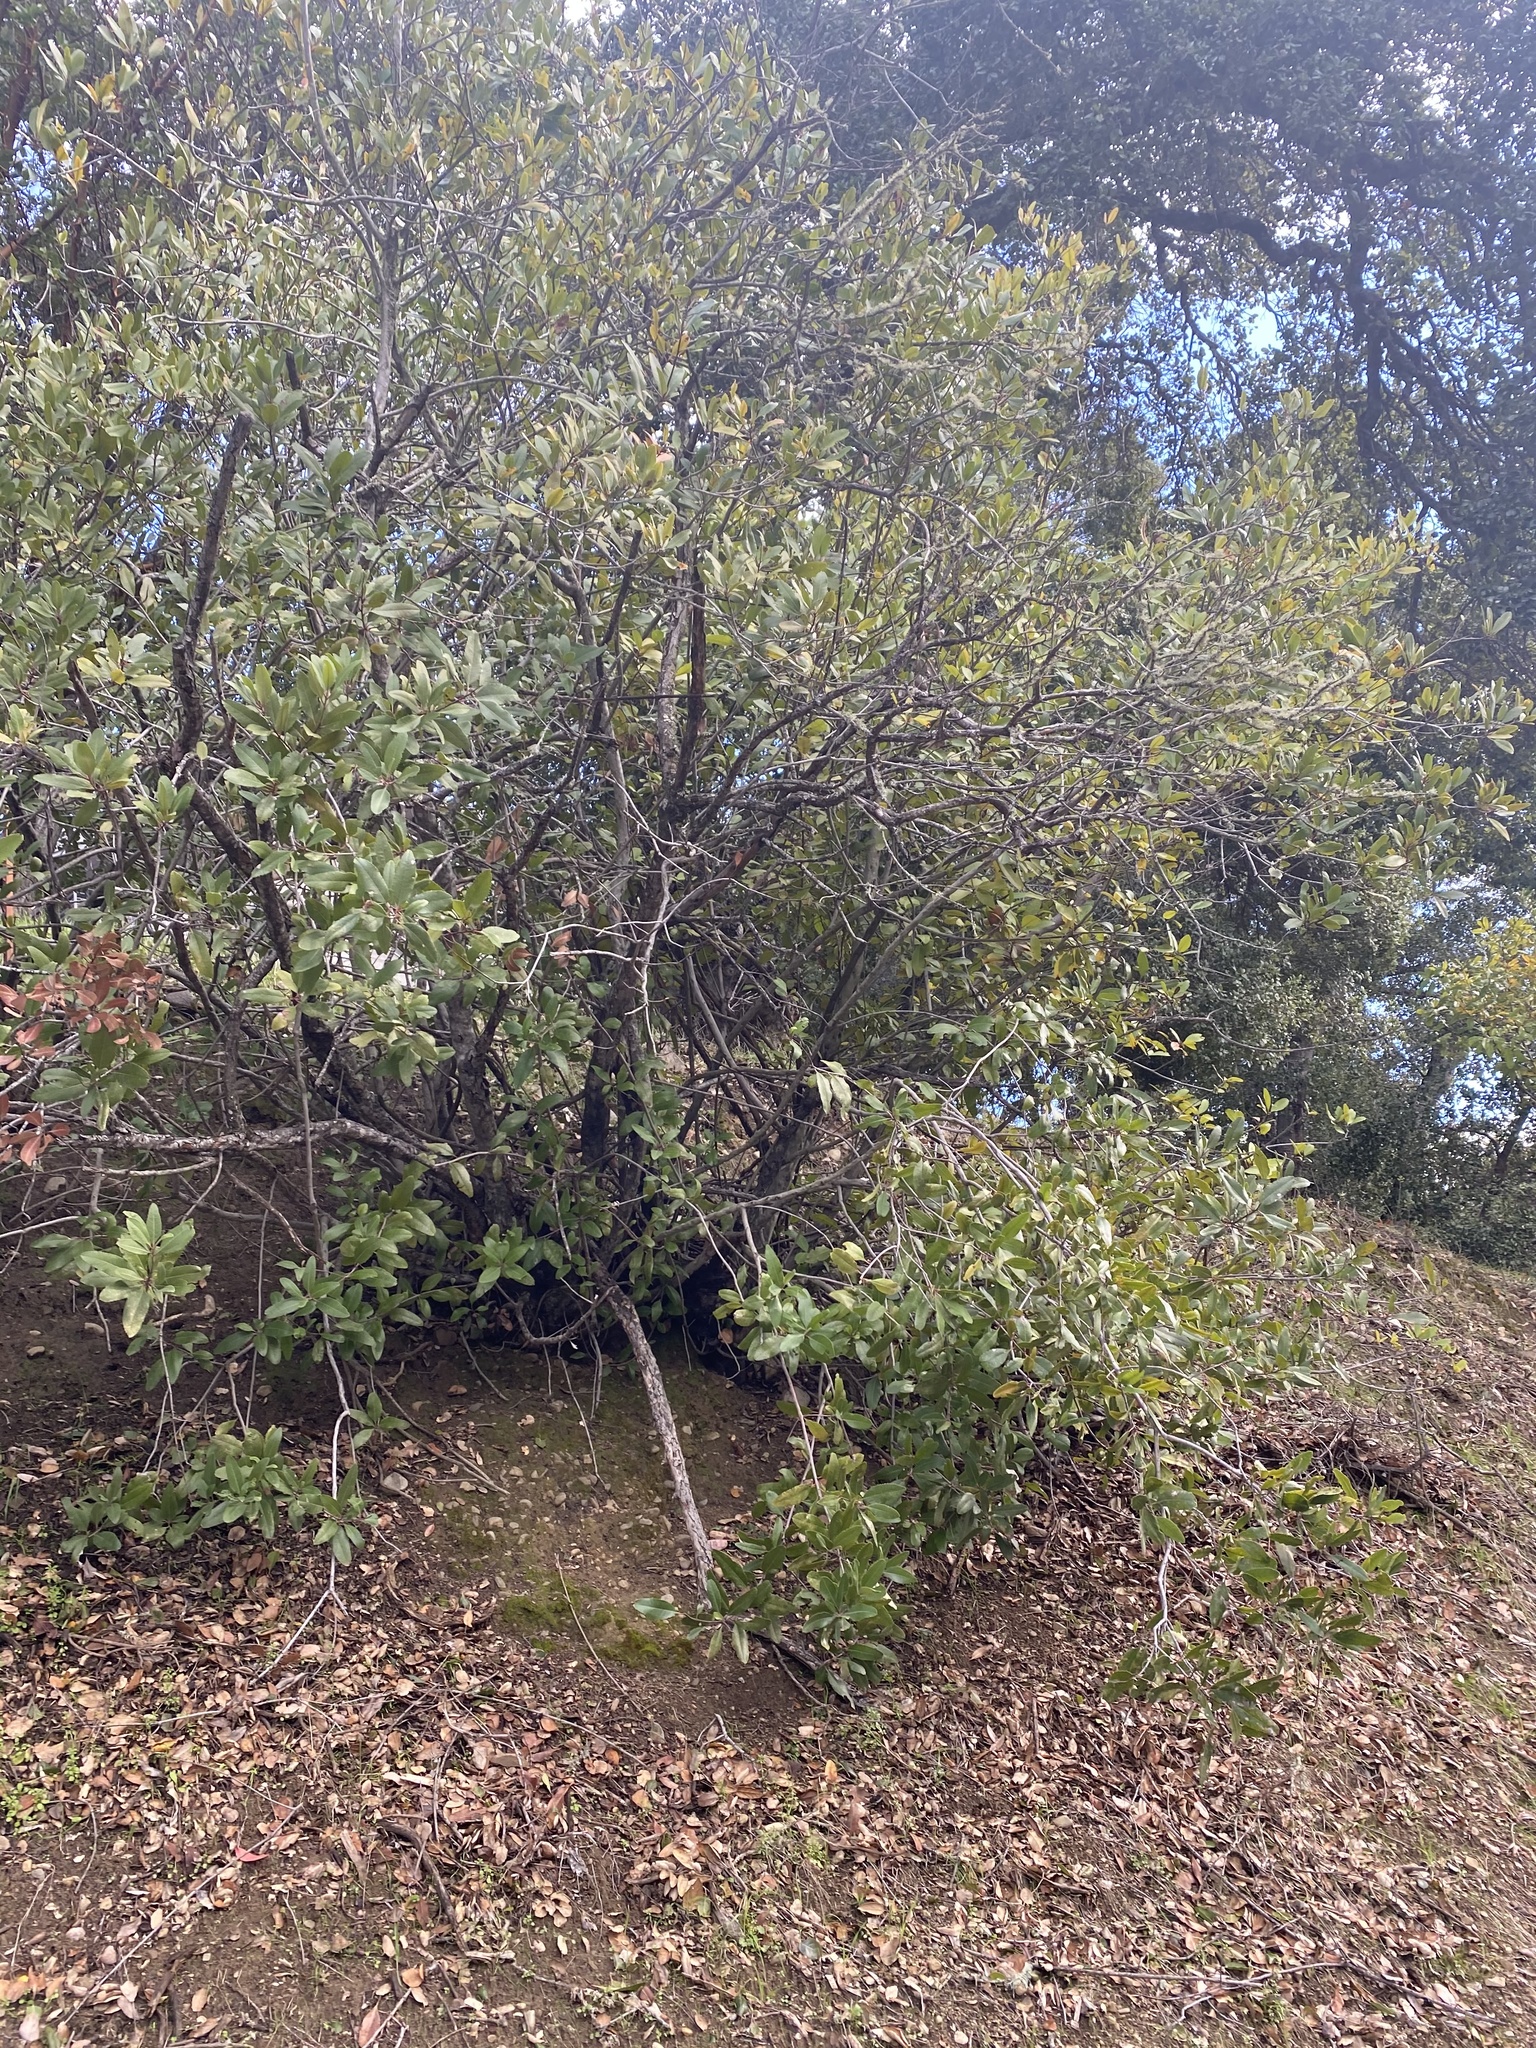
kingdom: Plantae
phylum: Tracheophyta
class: Magnoliopsida
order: Rosales
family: Rosaceae
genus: Heteromeles
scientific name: Heteromeles arbutifolia
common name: California-holly
